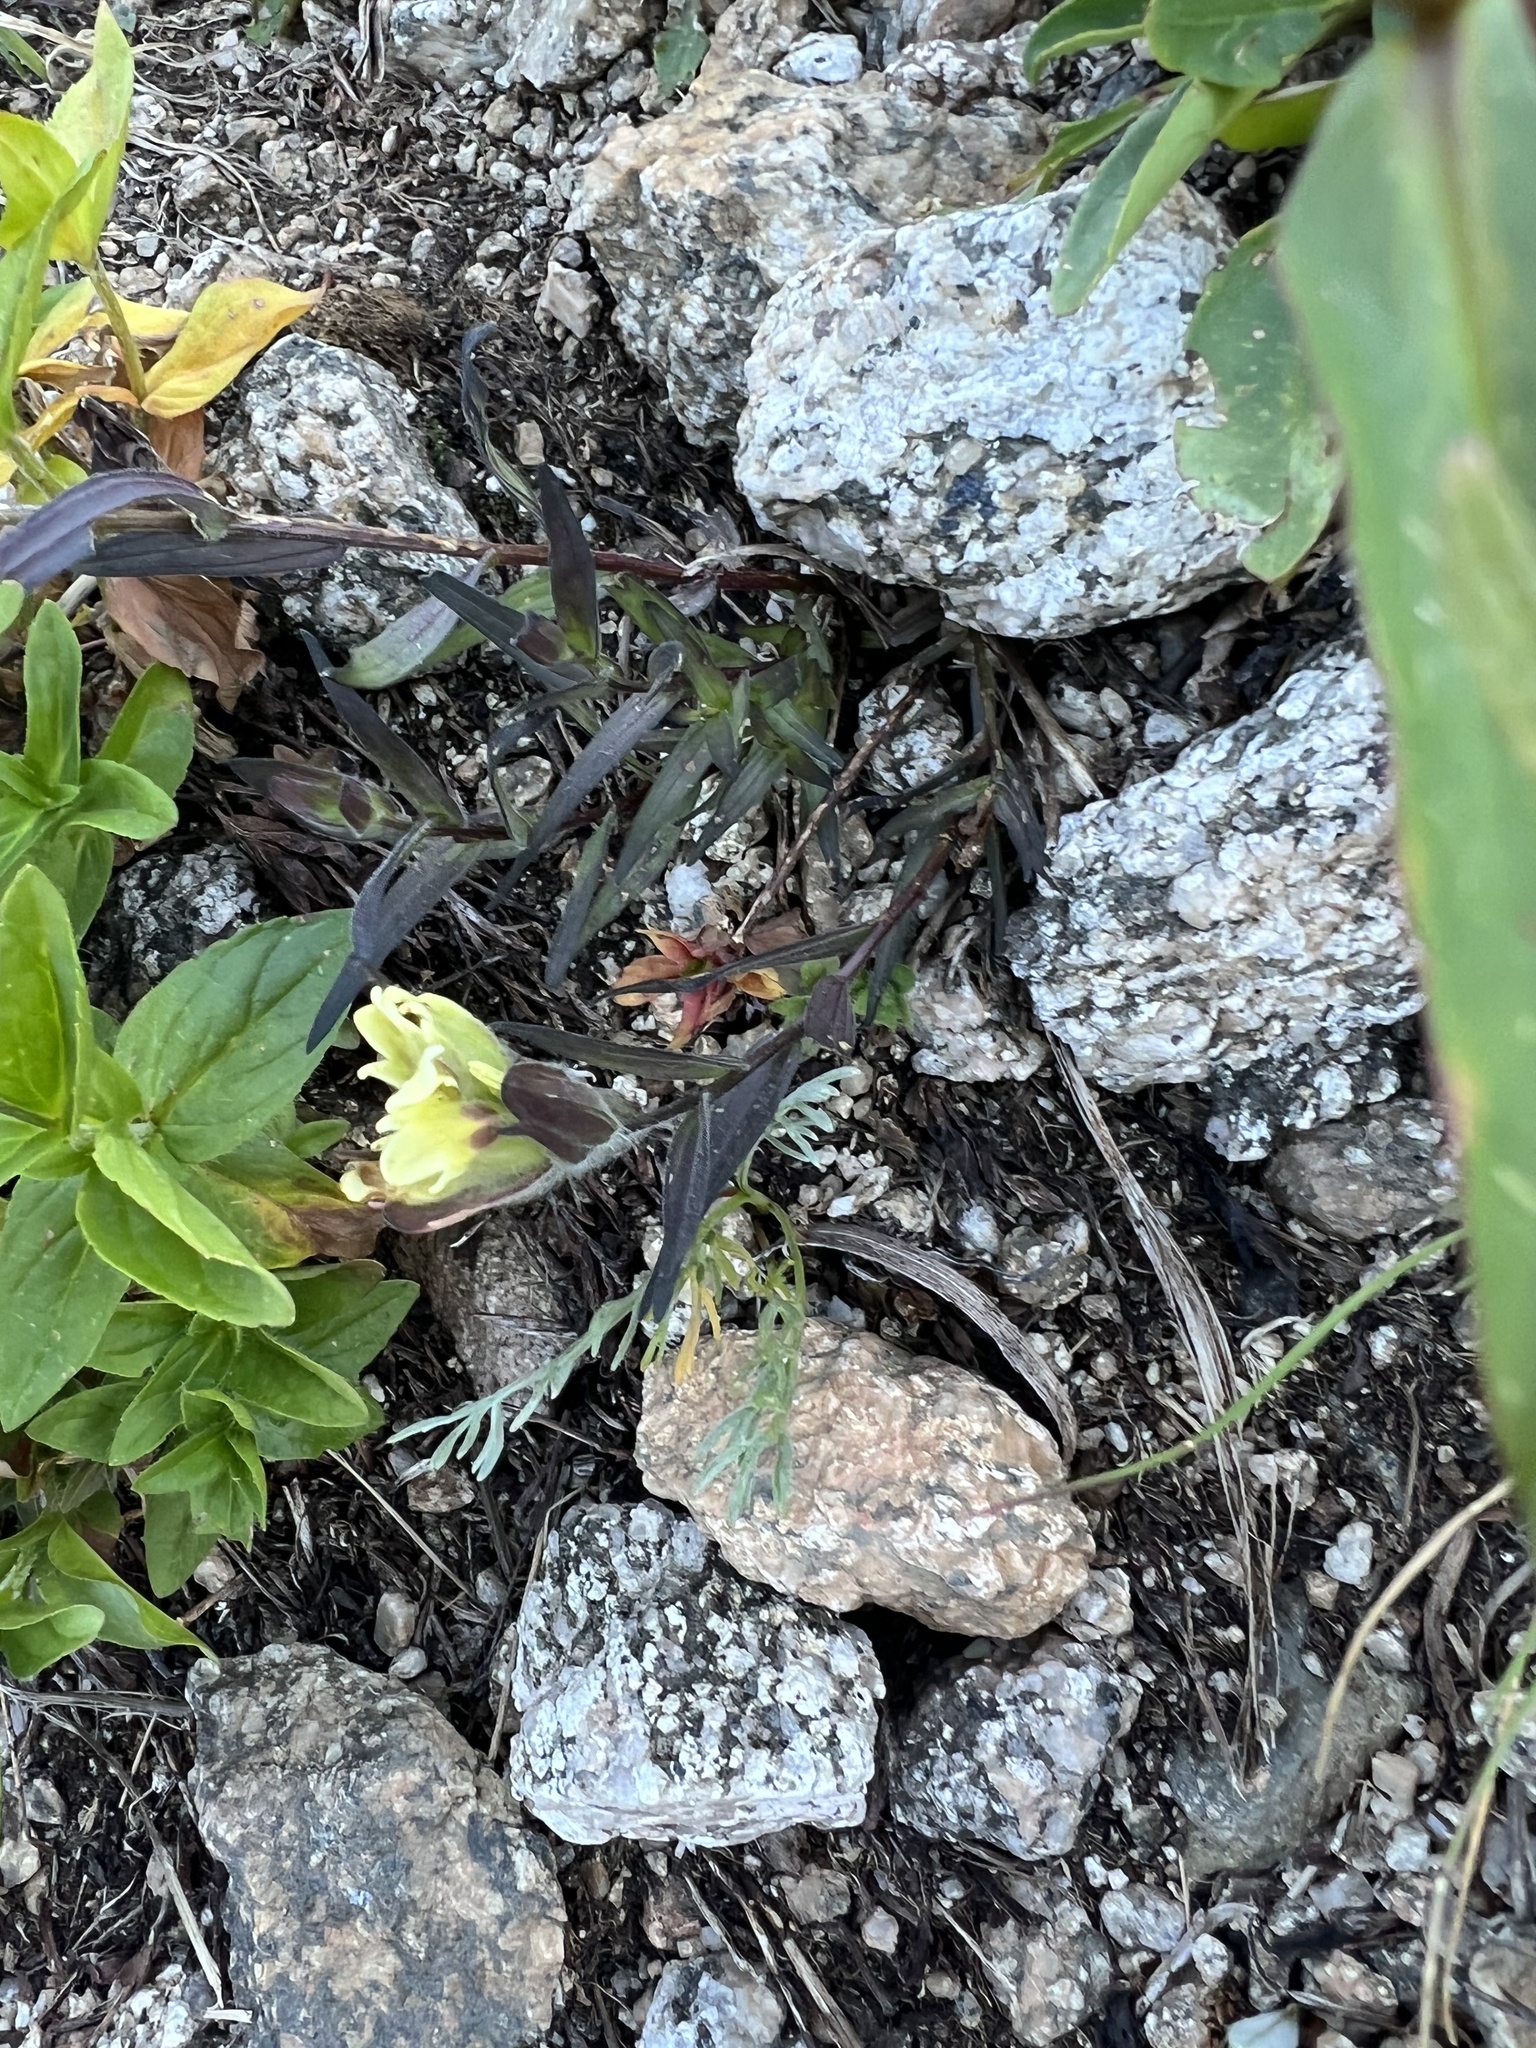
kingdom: Plantae
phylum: Tracheophyta
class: Magnoliopsida
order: Lamiales
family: Orobanchaceae
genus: Castilleja
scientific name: Castilleja occidentalis
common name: Western paintbrush
